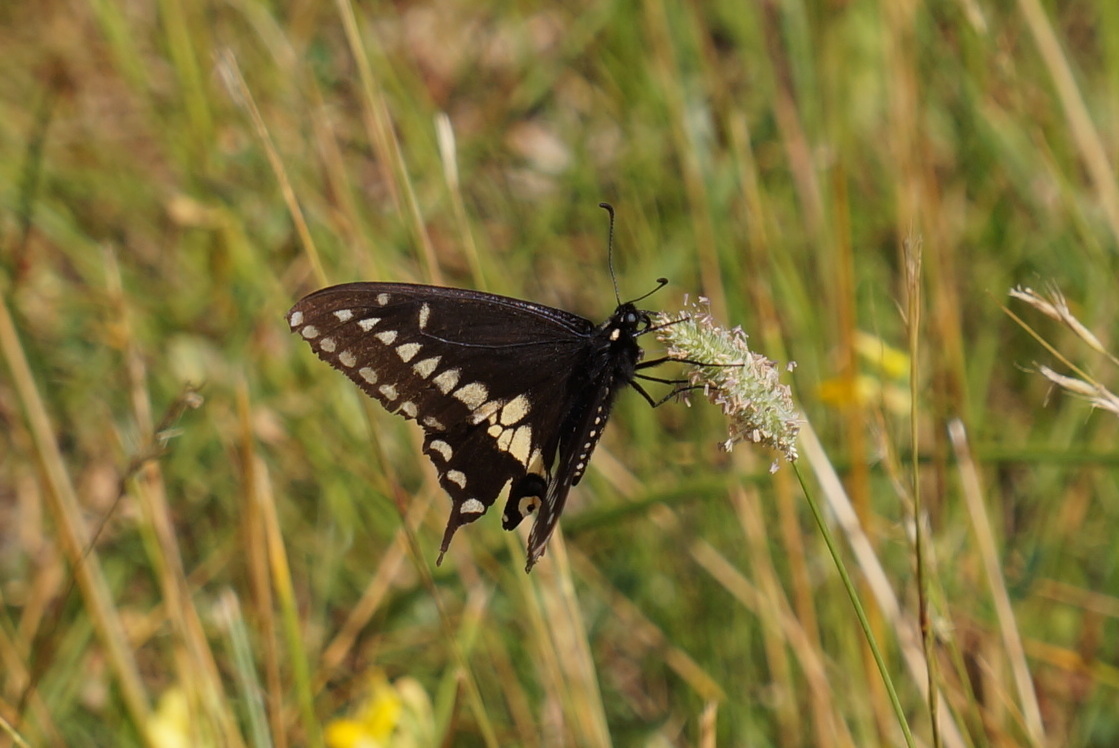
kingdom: Animalia
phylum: Arthropoda
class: Insecta
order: Lepidoptera
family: Papilionidae
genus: Papilio
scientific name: Papilio polyxenes
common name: Black swallowtail
